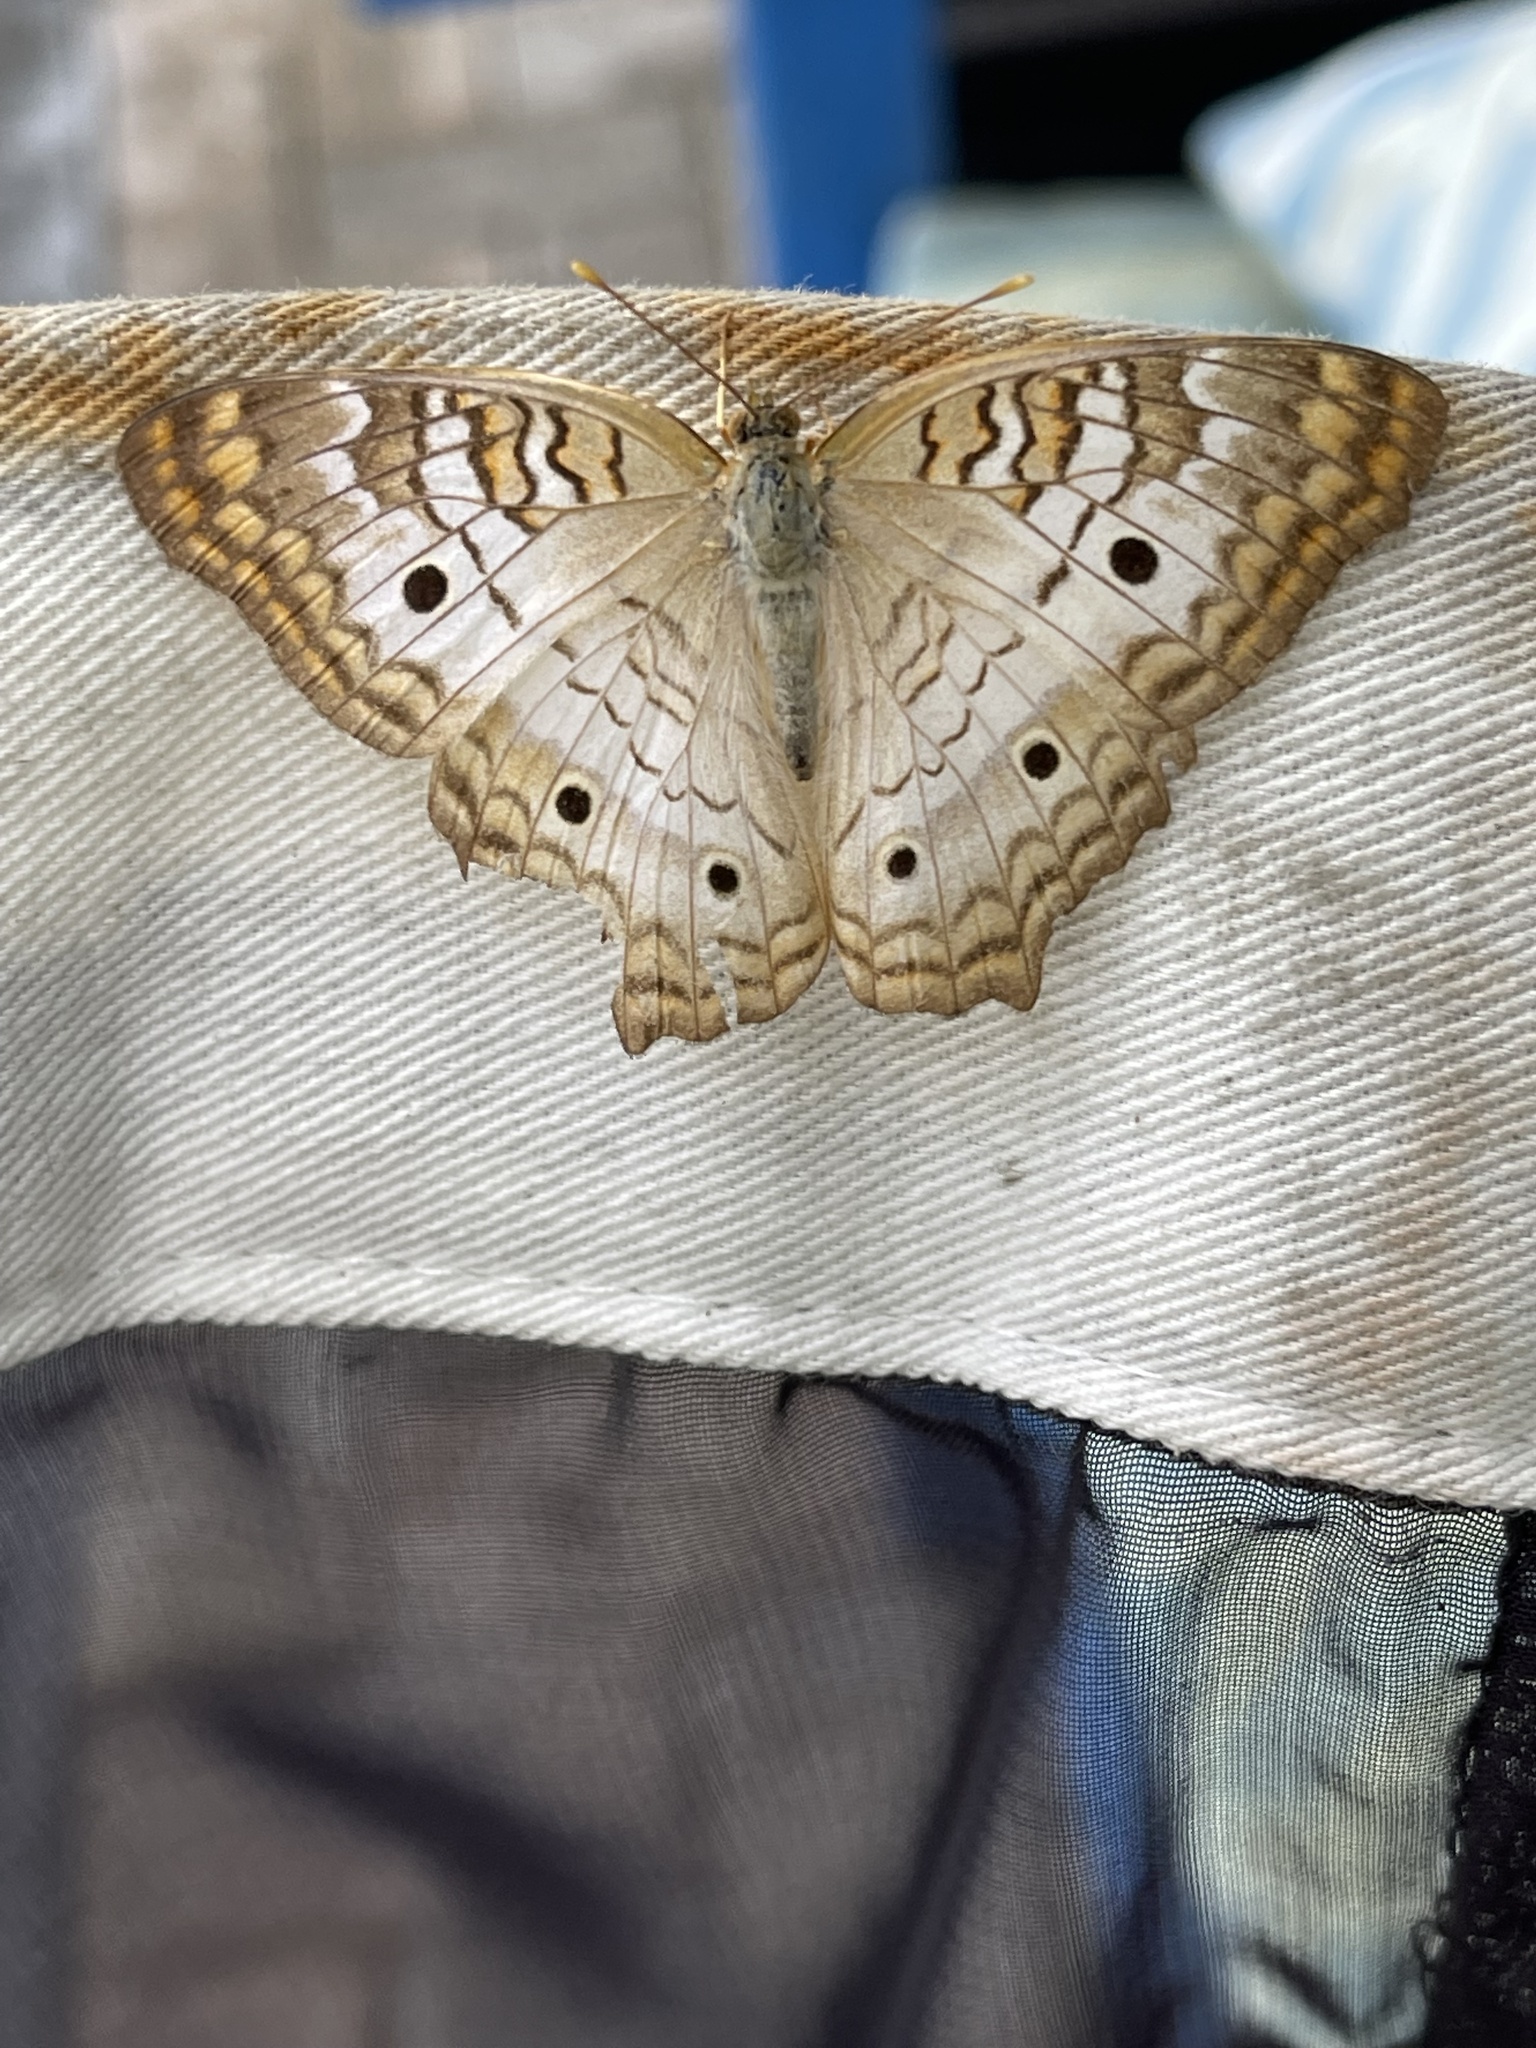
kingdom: Animalia
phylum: Arthropoda
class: Insecta
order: Lepidoptera
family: Nymphalidae
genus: Anartia
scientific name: Anartia jatrophae
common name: White peacock
